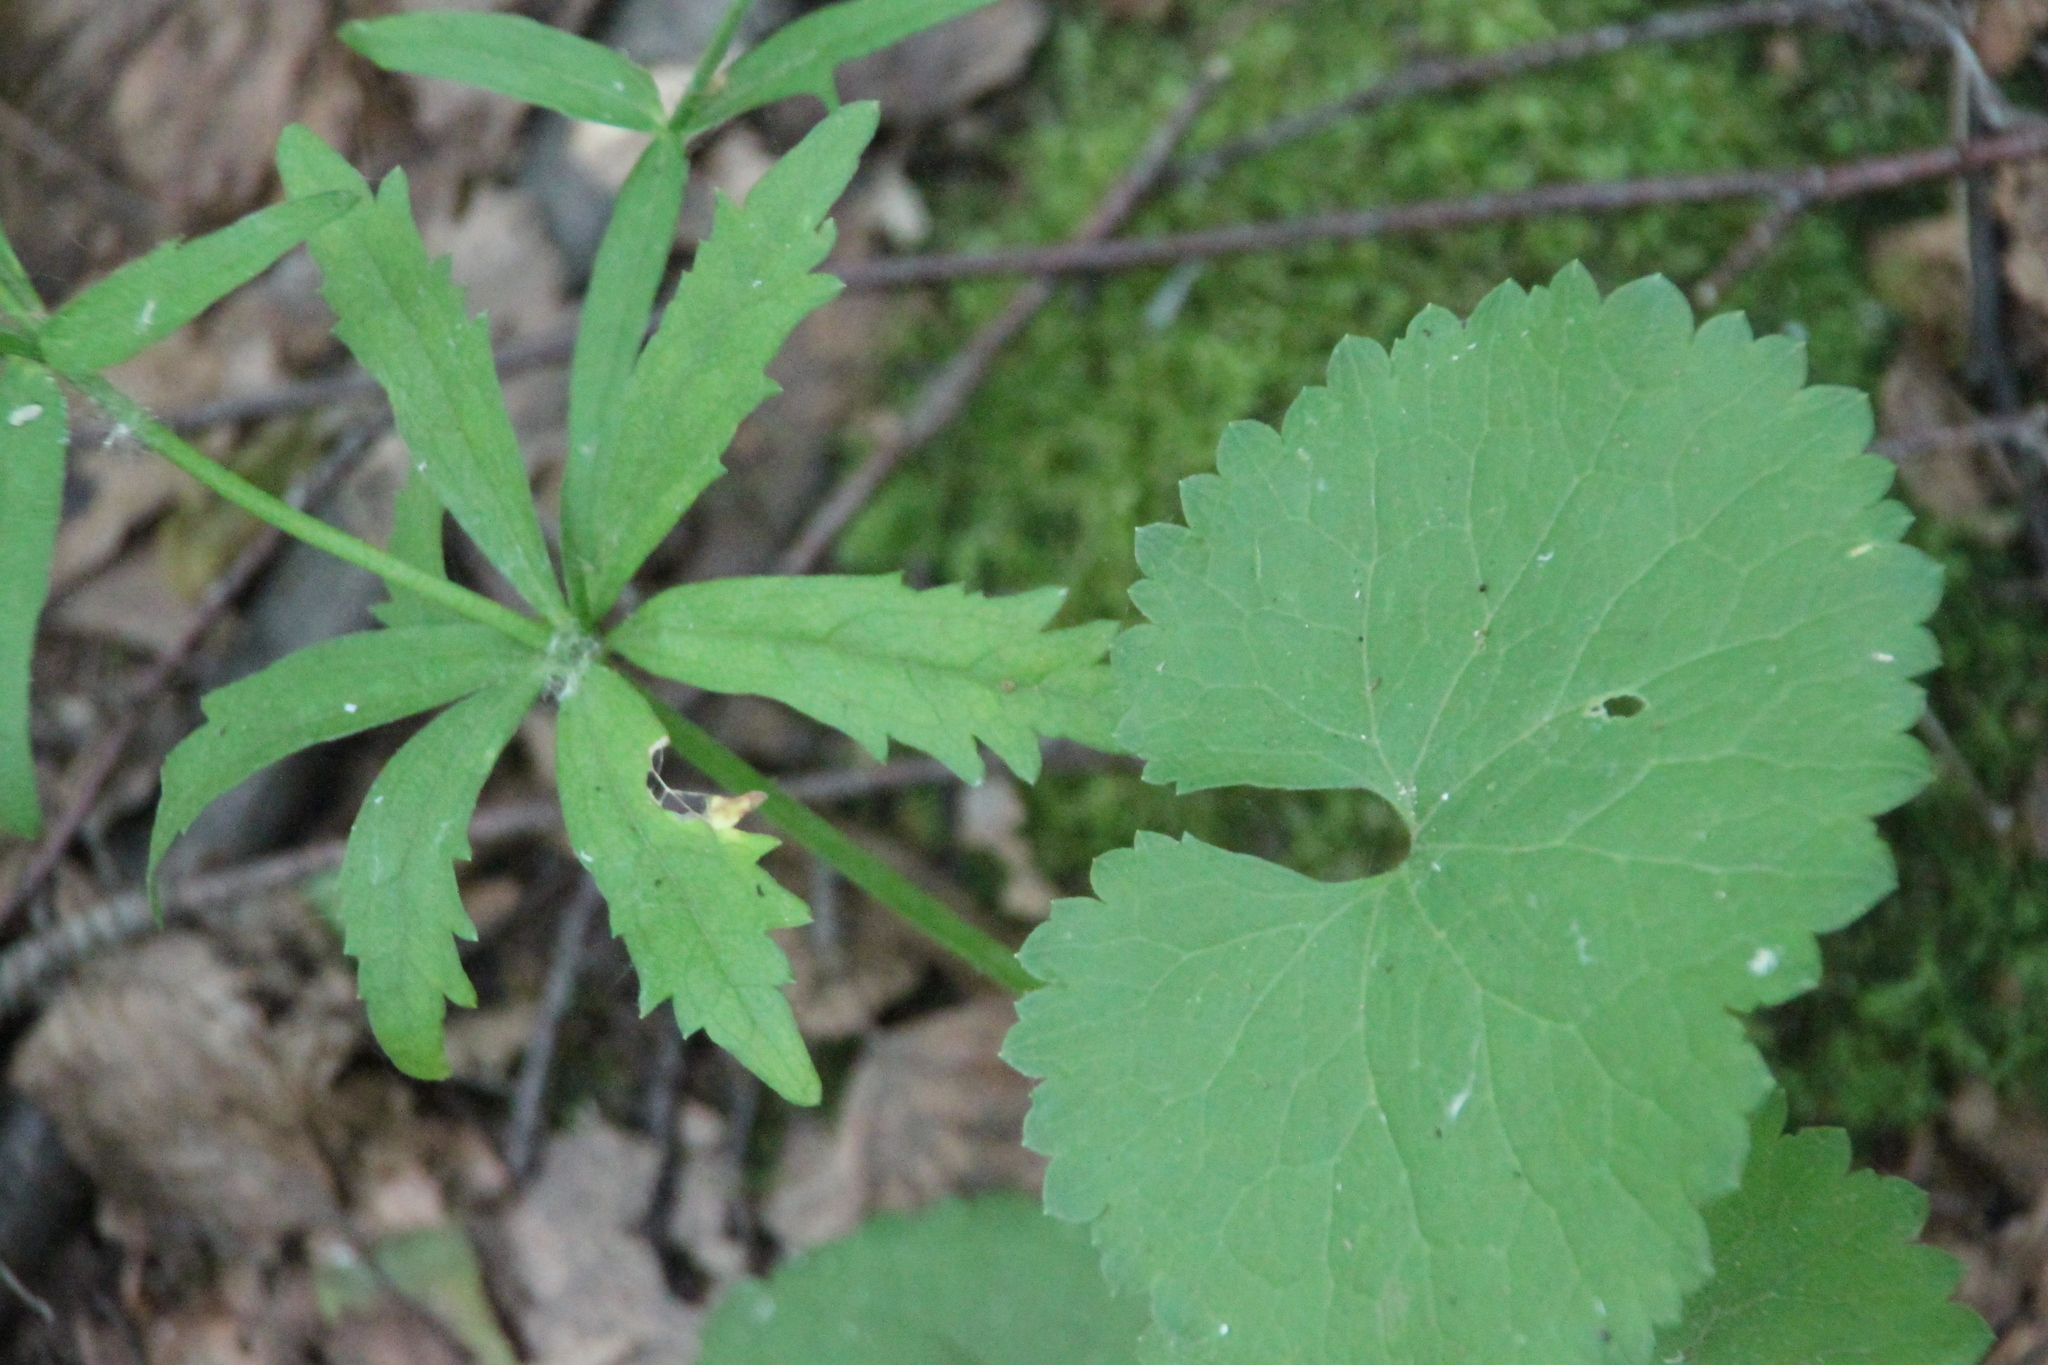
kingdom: Plantae
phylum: Tracheophyta
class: Magnoliopsida
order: Ranunculales
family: Ranunculaceae
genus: Ranunculus
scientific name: Ranunculus cassubicus
